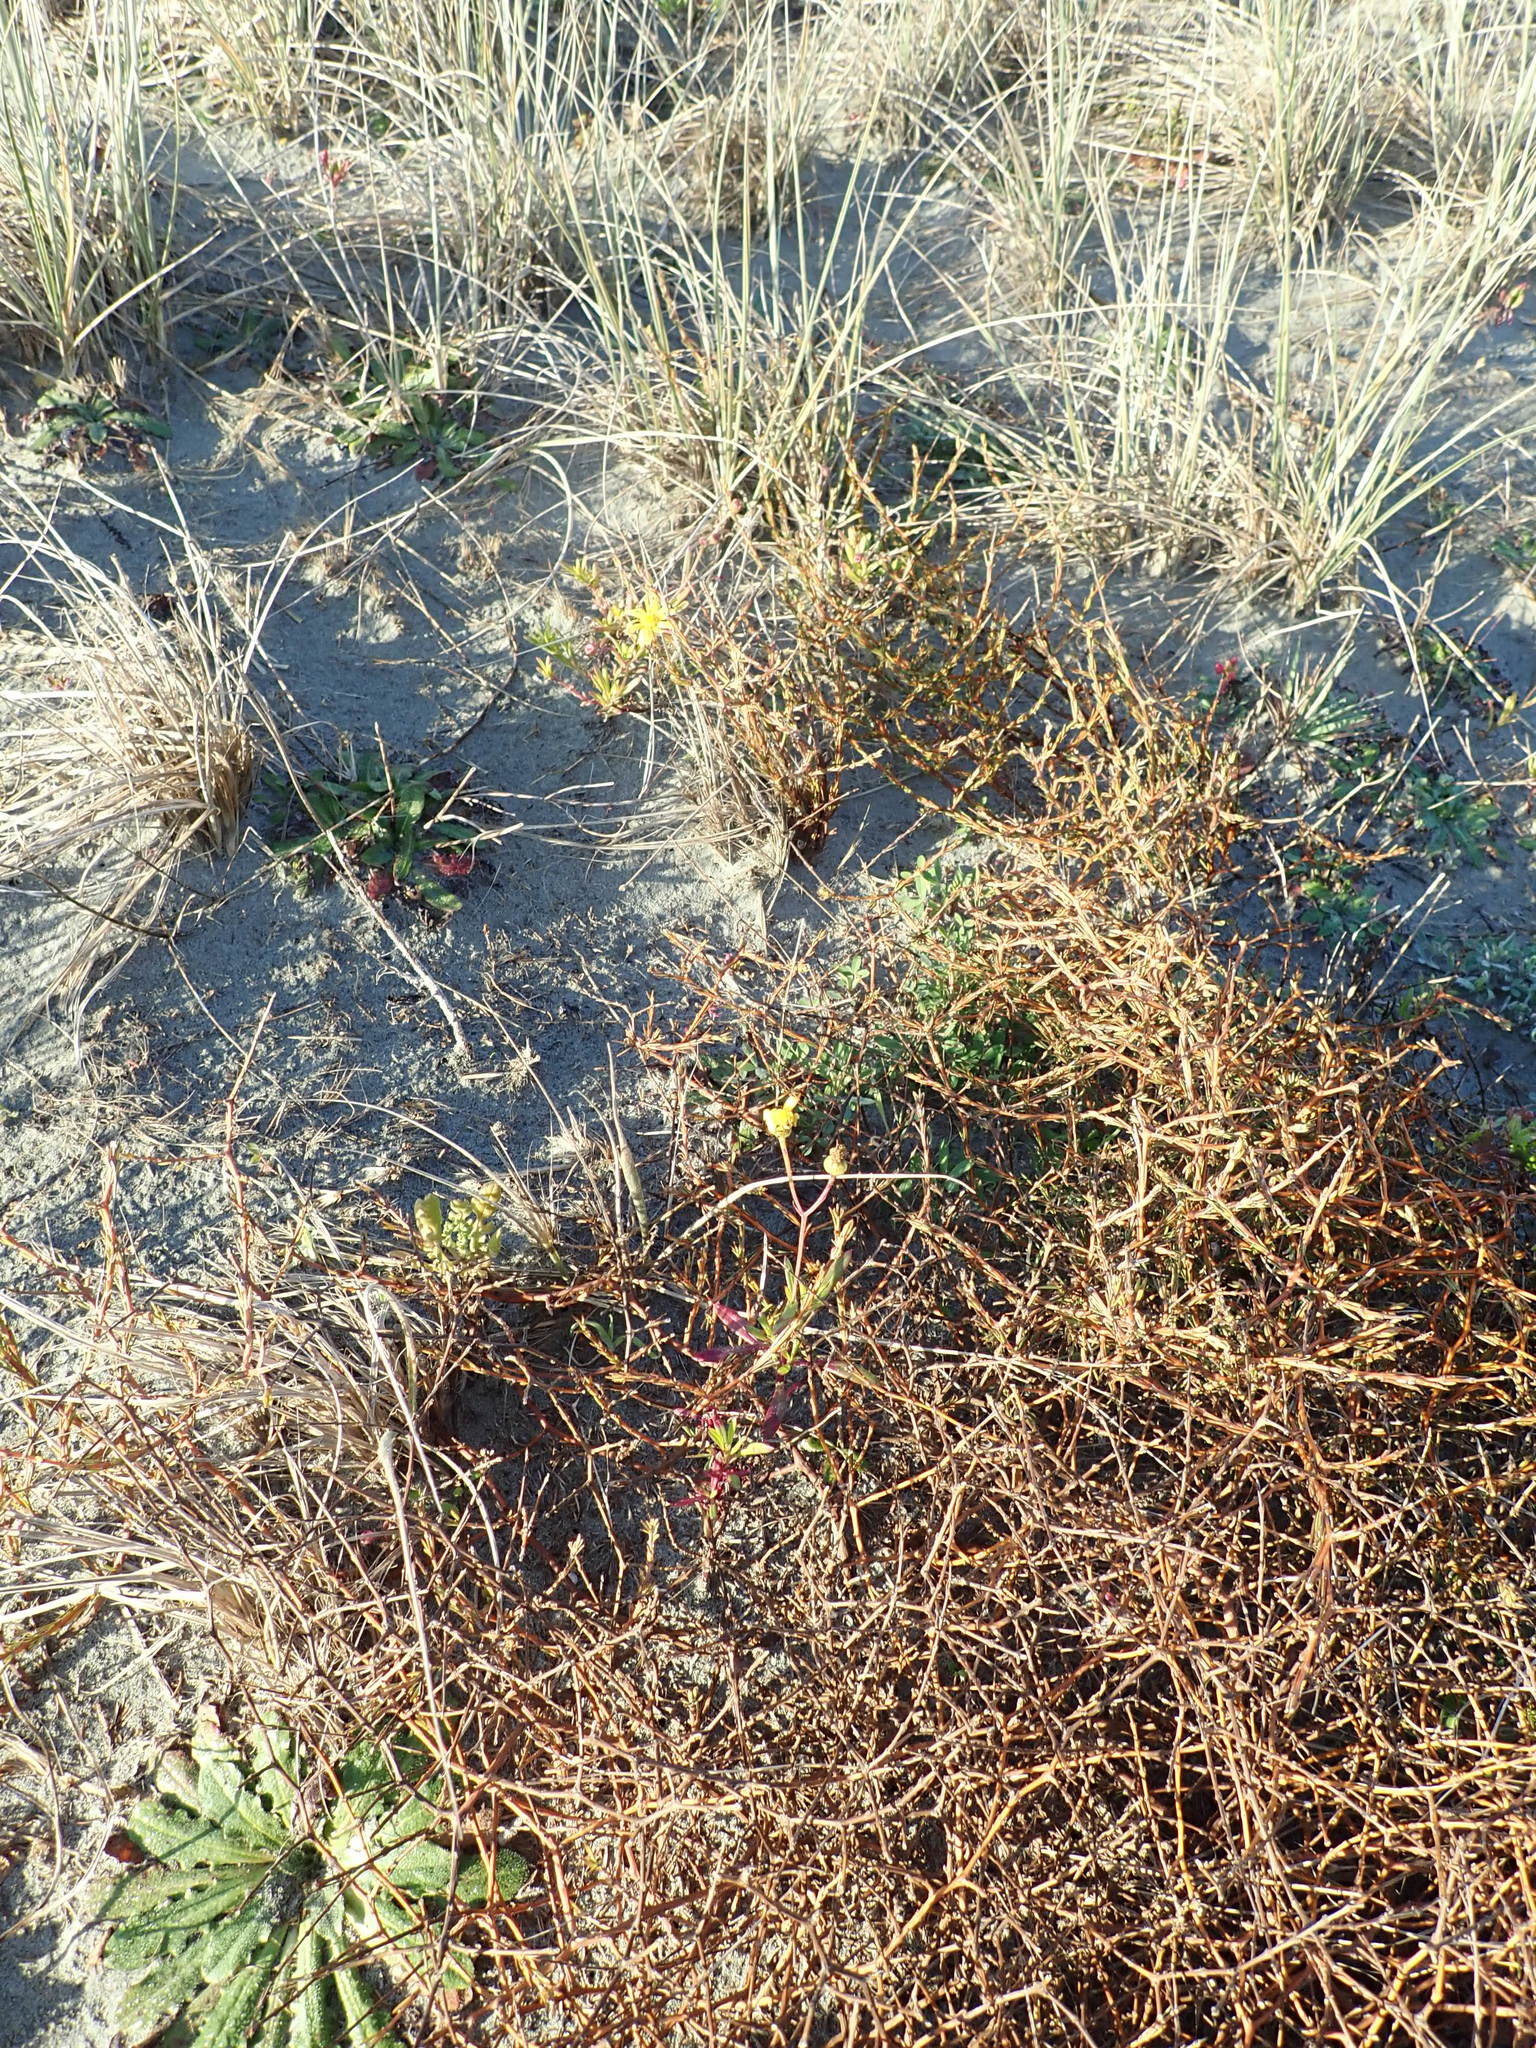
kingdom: Plantae
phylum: Tracheophyta
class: Magnoliopsida
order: Asterales
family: Asteraceae
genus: Senecio
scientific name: Senecio skirrhodon
